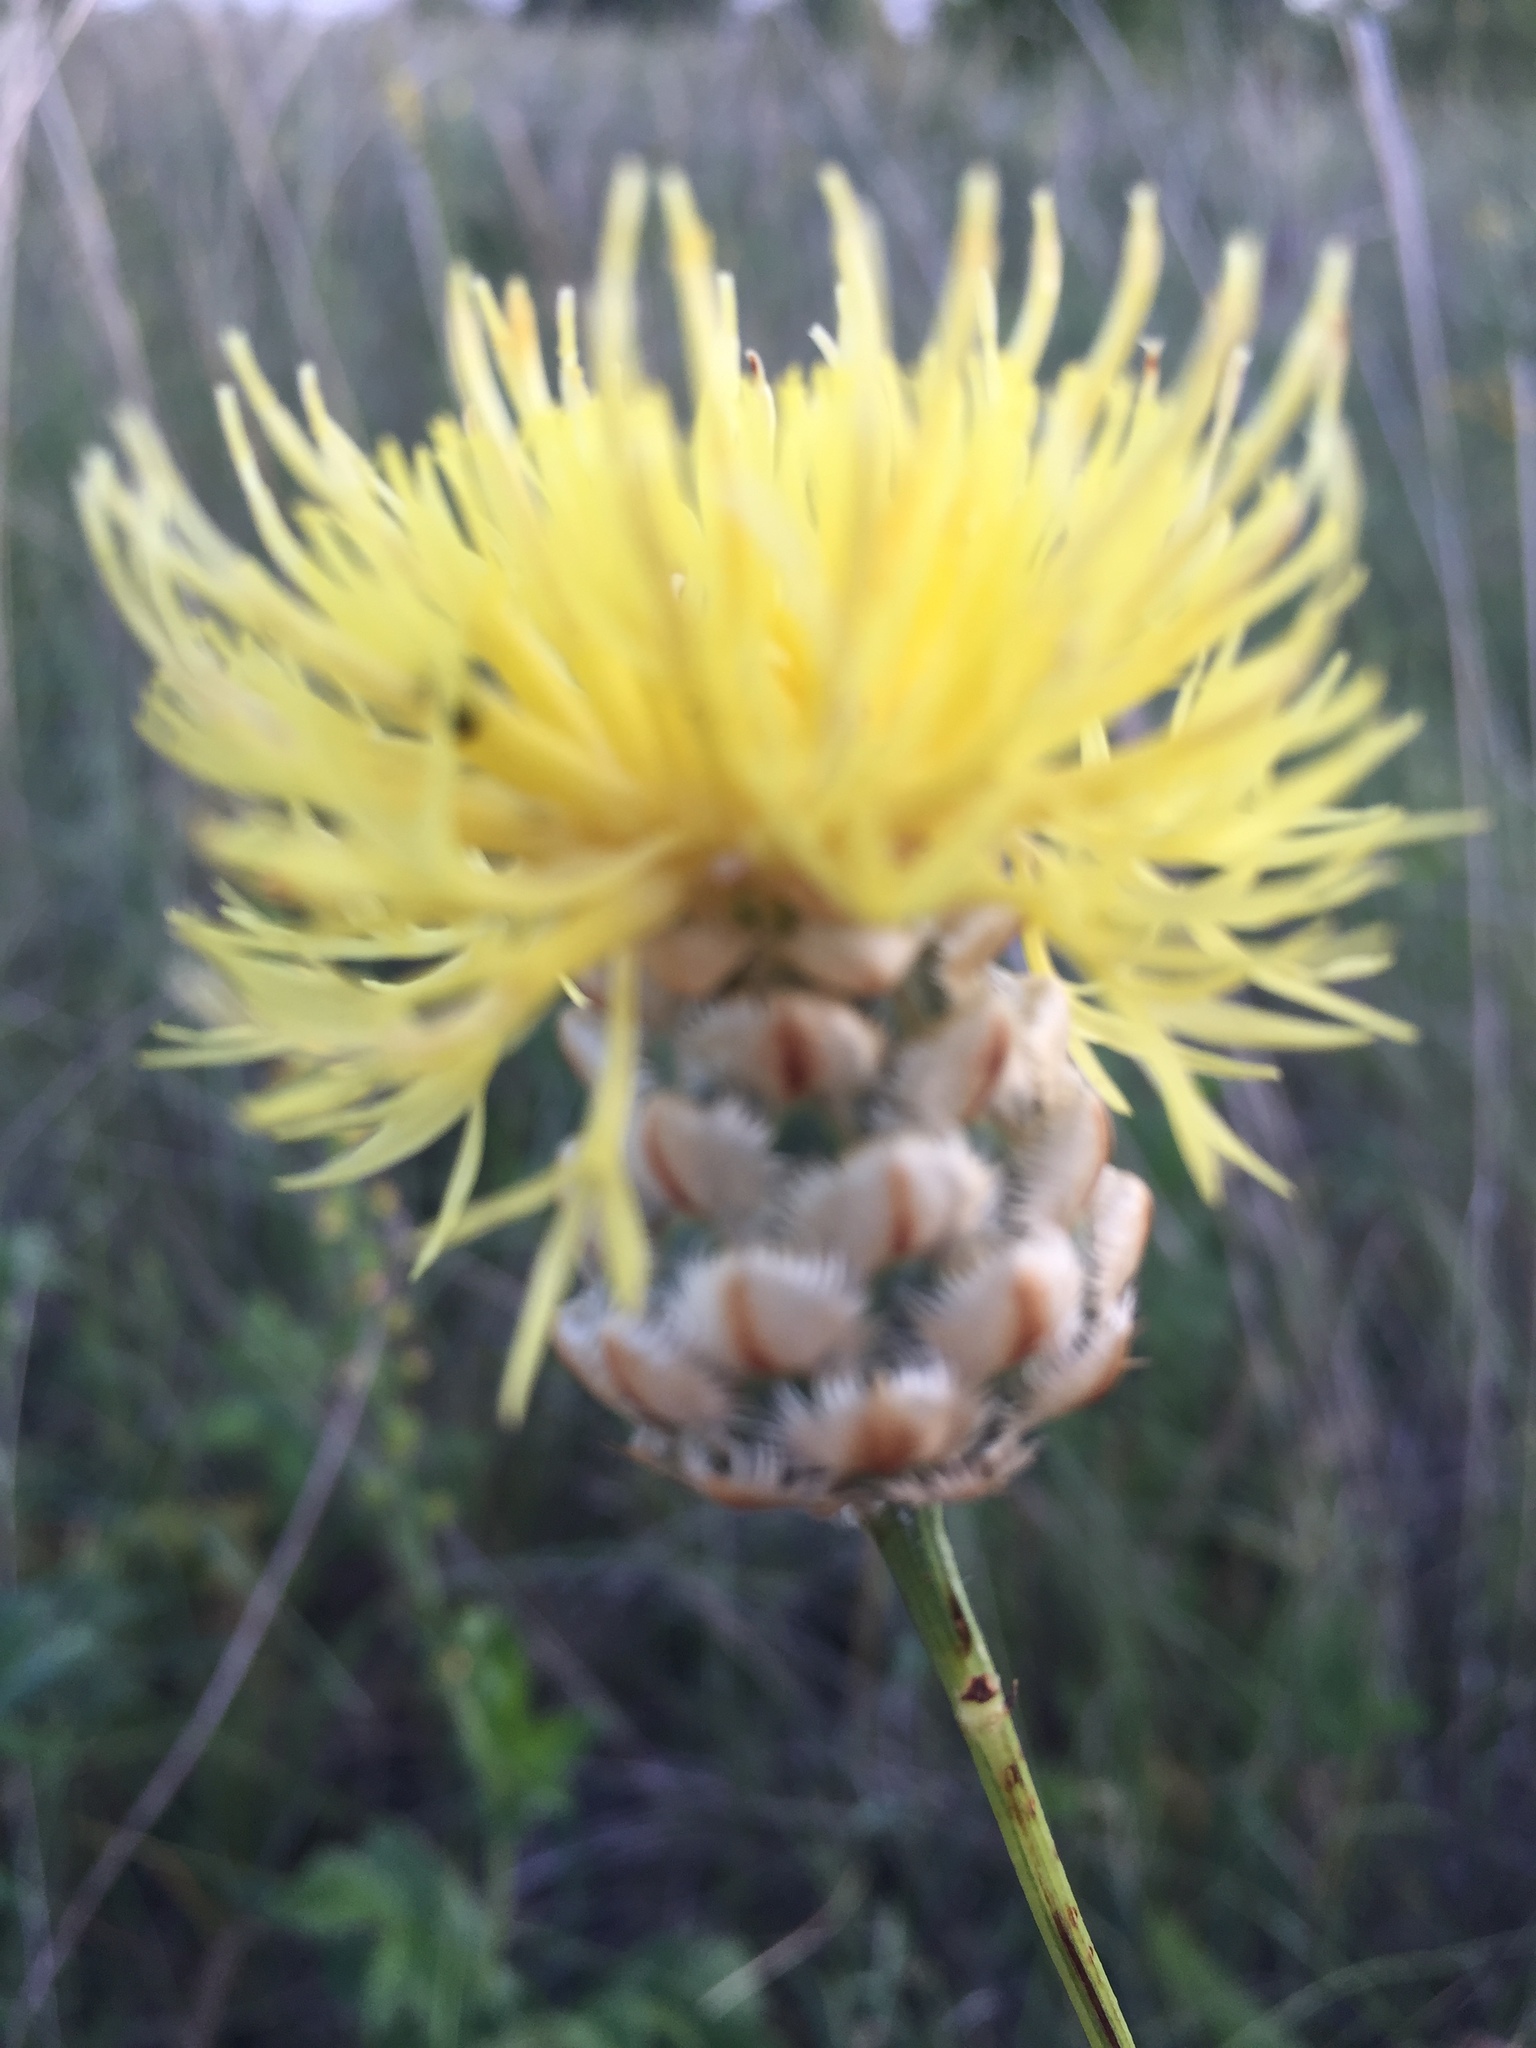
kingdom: Plantae
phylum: Tracheophyta
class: Magnoliopsida
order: Asterales
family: Asteraceae
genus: Centaurea
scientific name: Centaurea orientalis
